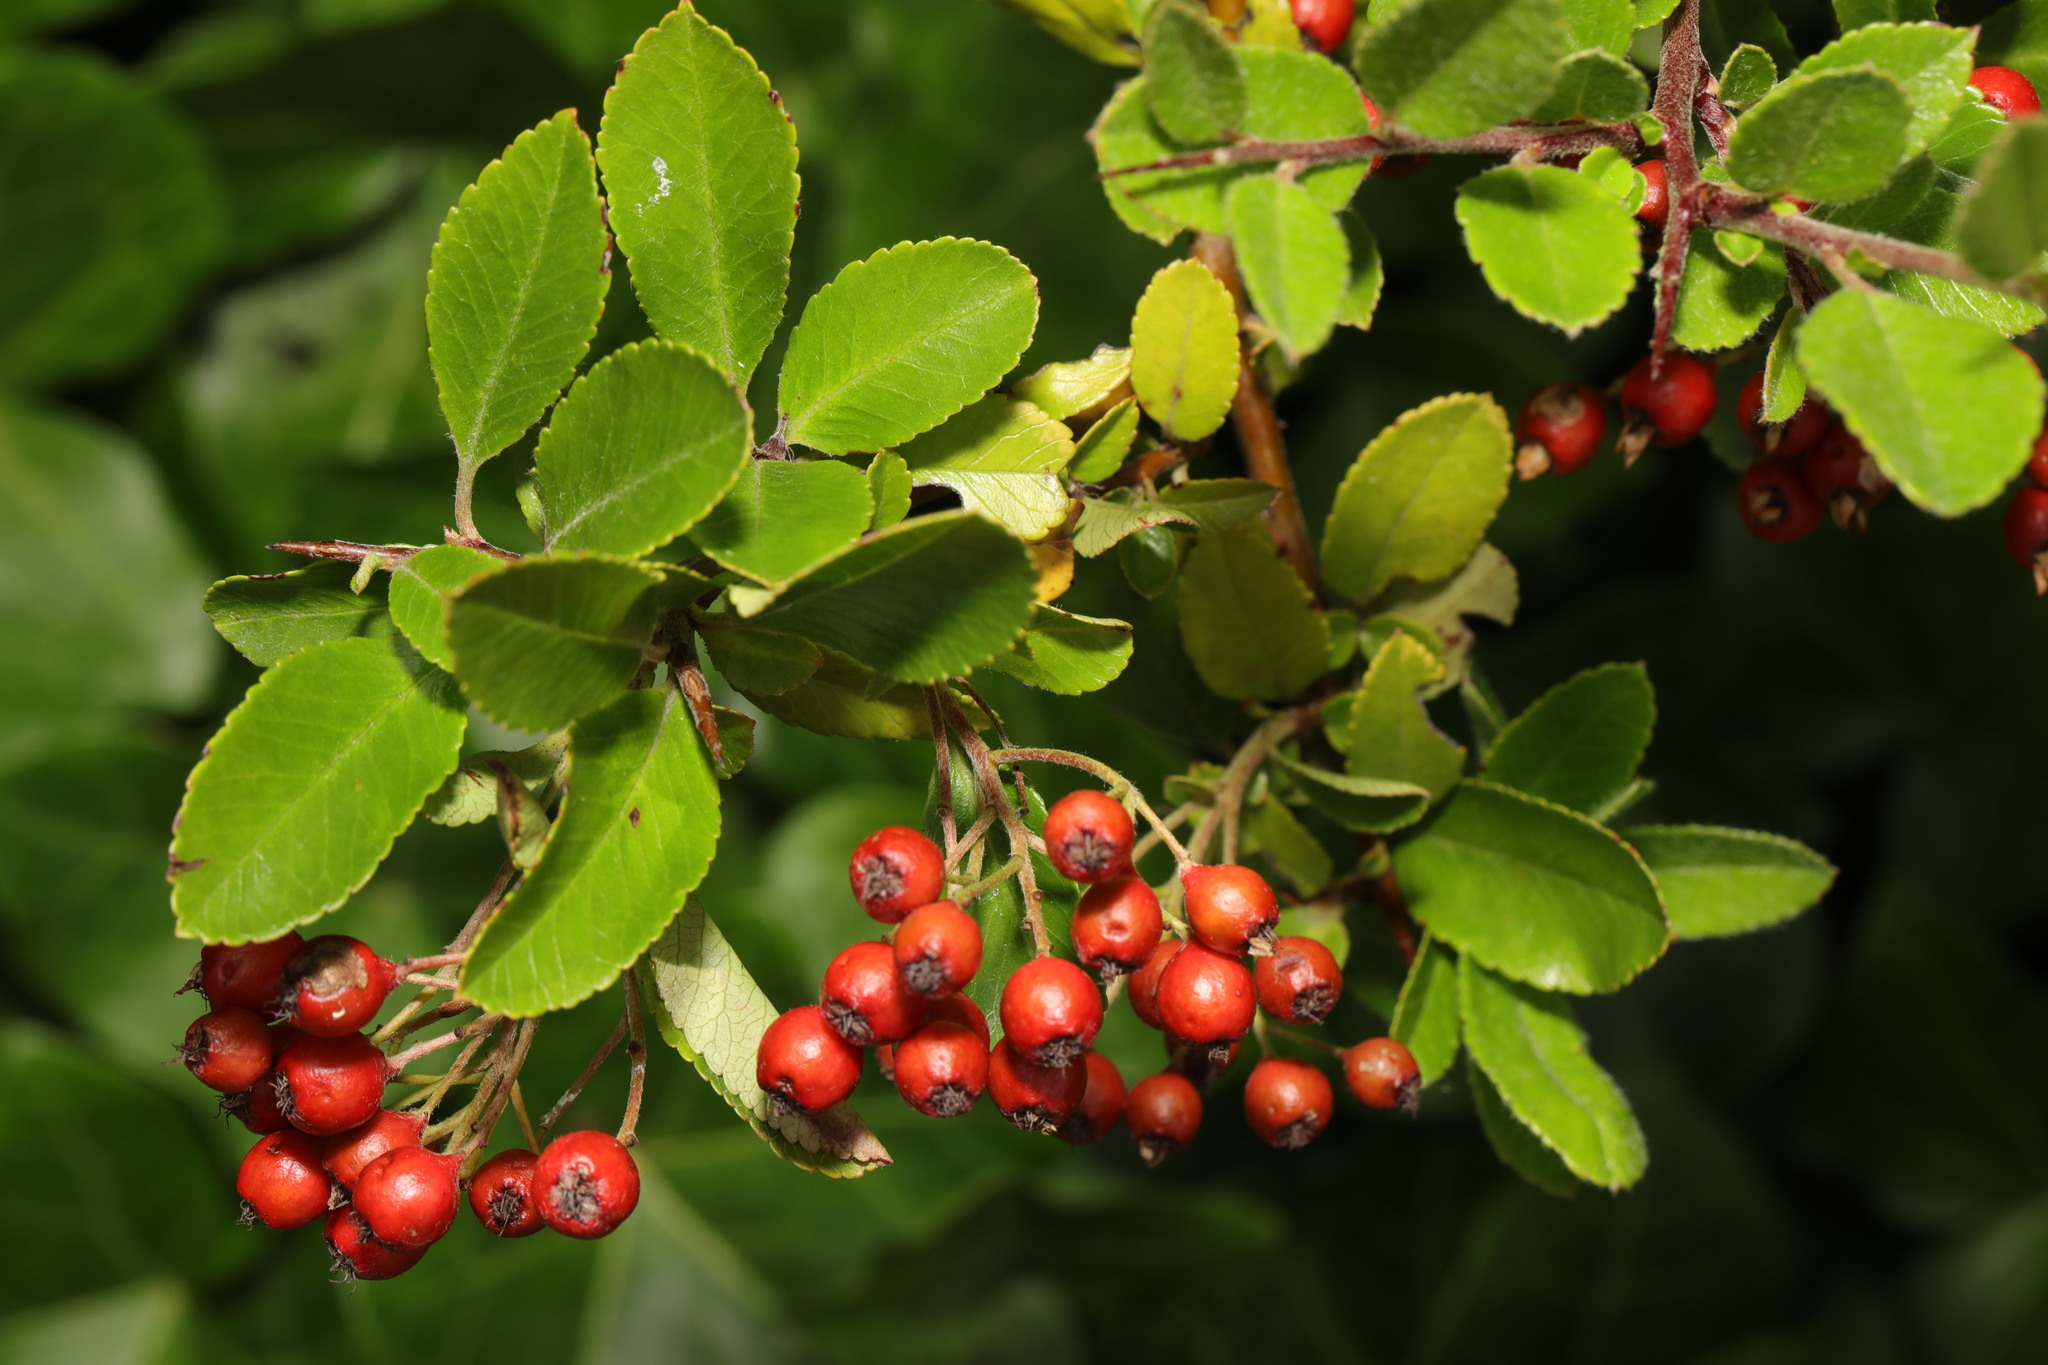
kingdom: Plantae
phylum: Tracheophyta
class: Magnoliopsida
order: Rosales
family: Rosaceae
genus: Pyracantha
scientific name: Pyracantha coccinea
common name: Firethorn
